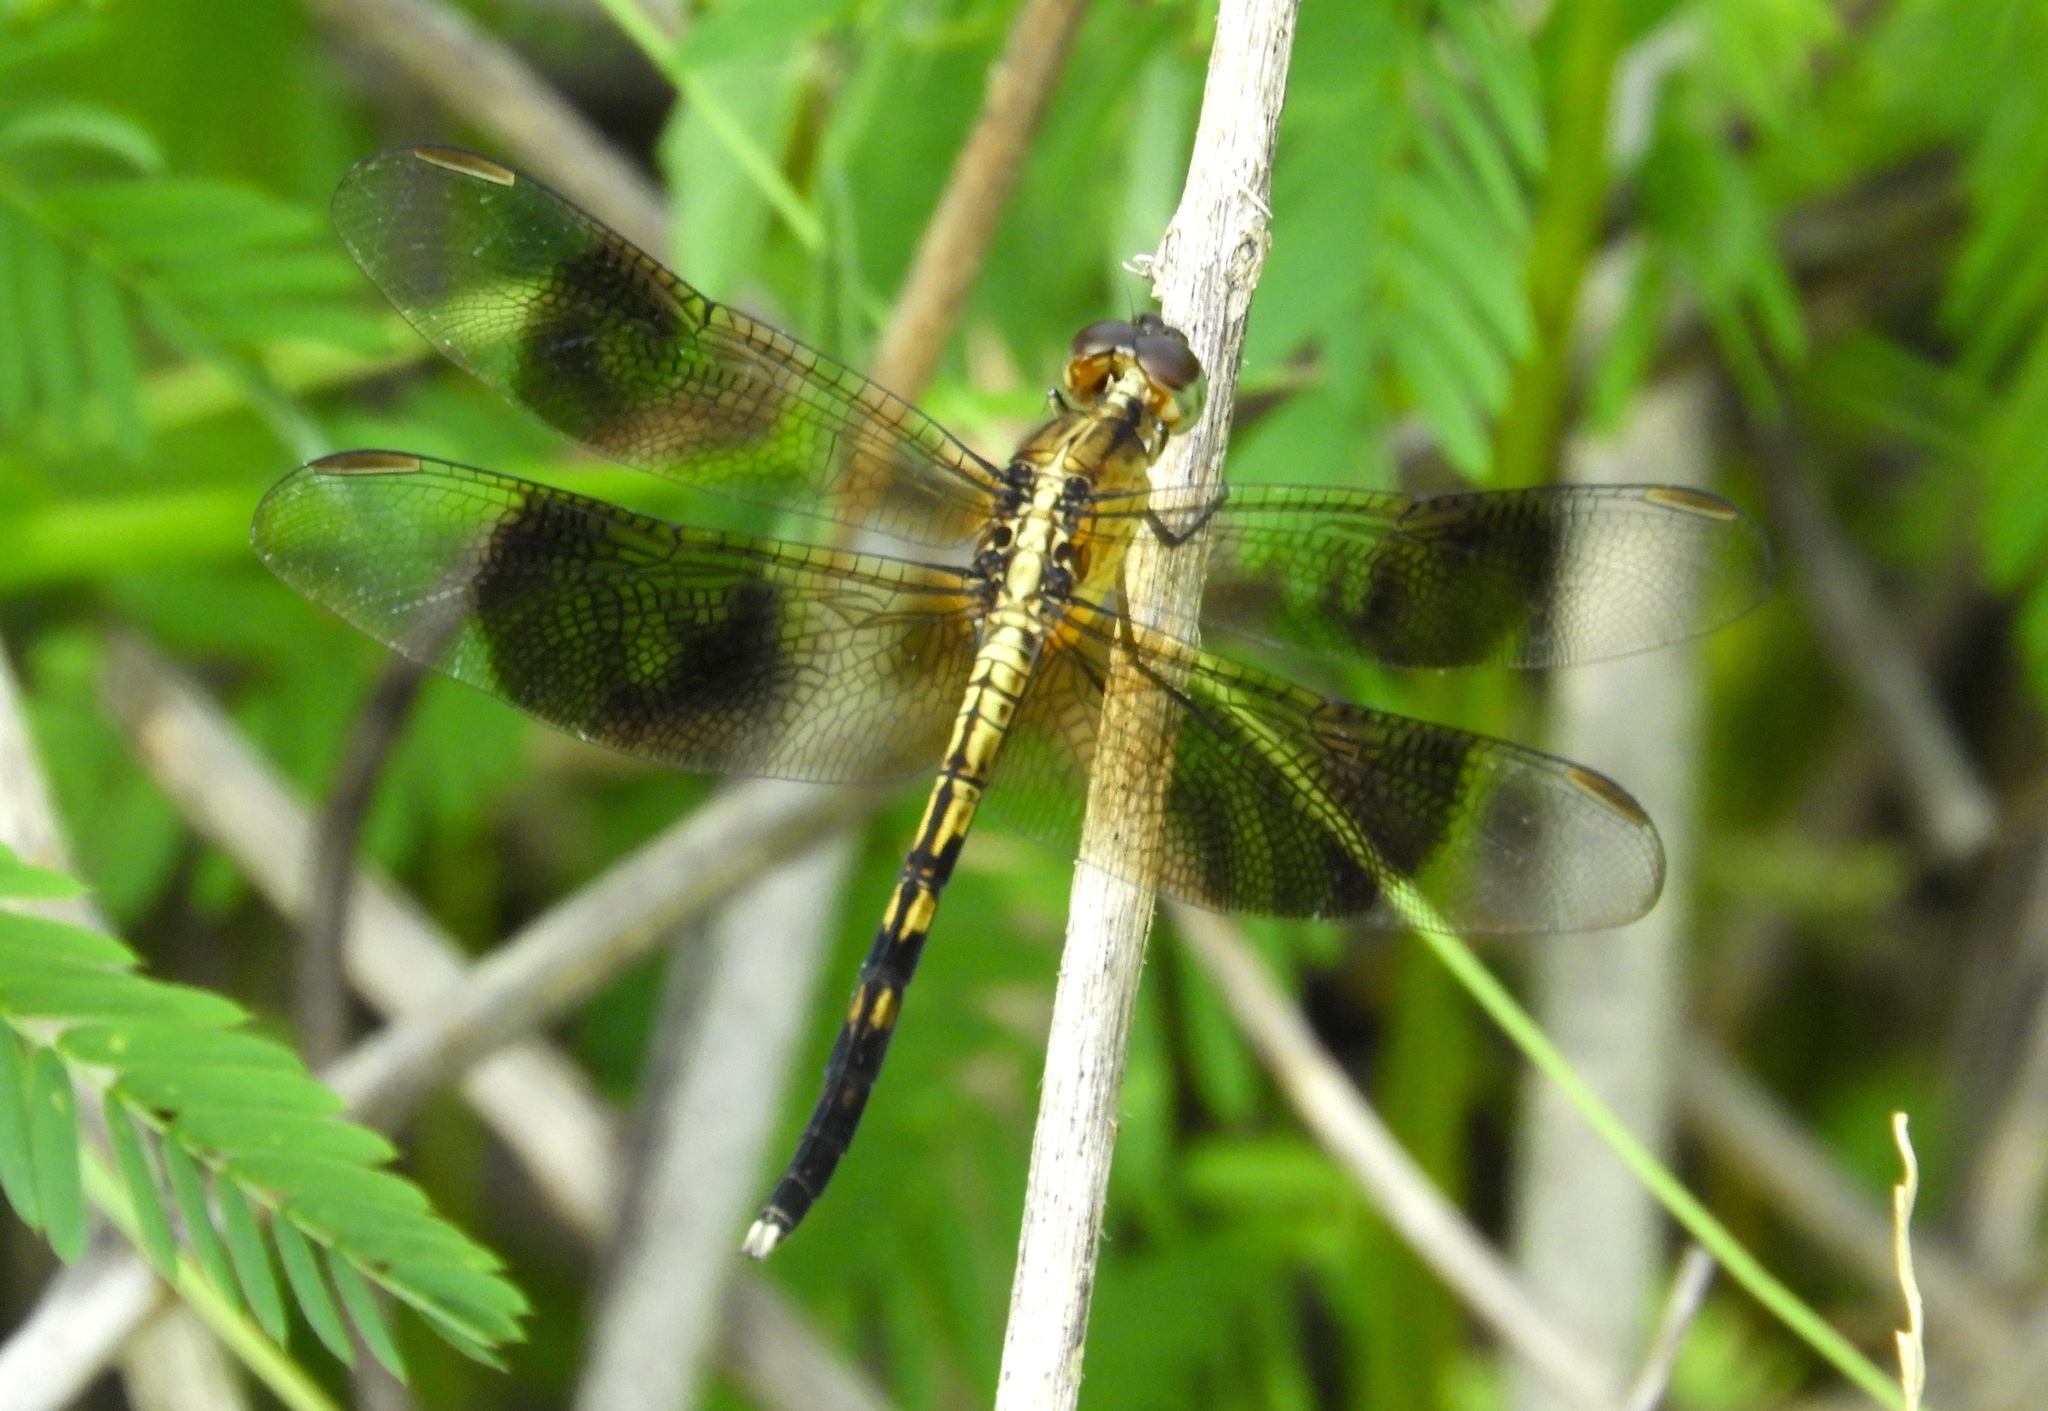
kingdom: Animalia
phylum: Arthropoda
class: Insecta
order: Odonata
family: Libellulidae
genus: Erythrodiplax
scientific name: Erythrodiplax funerea
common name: Black-winged dragonlet
